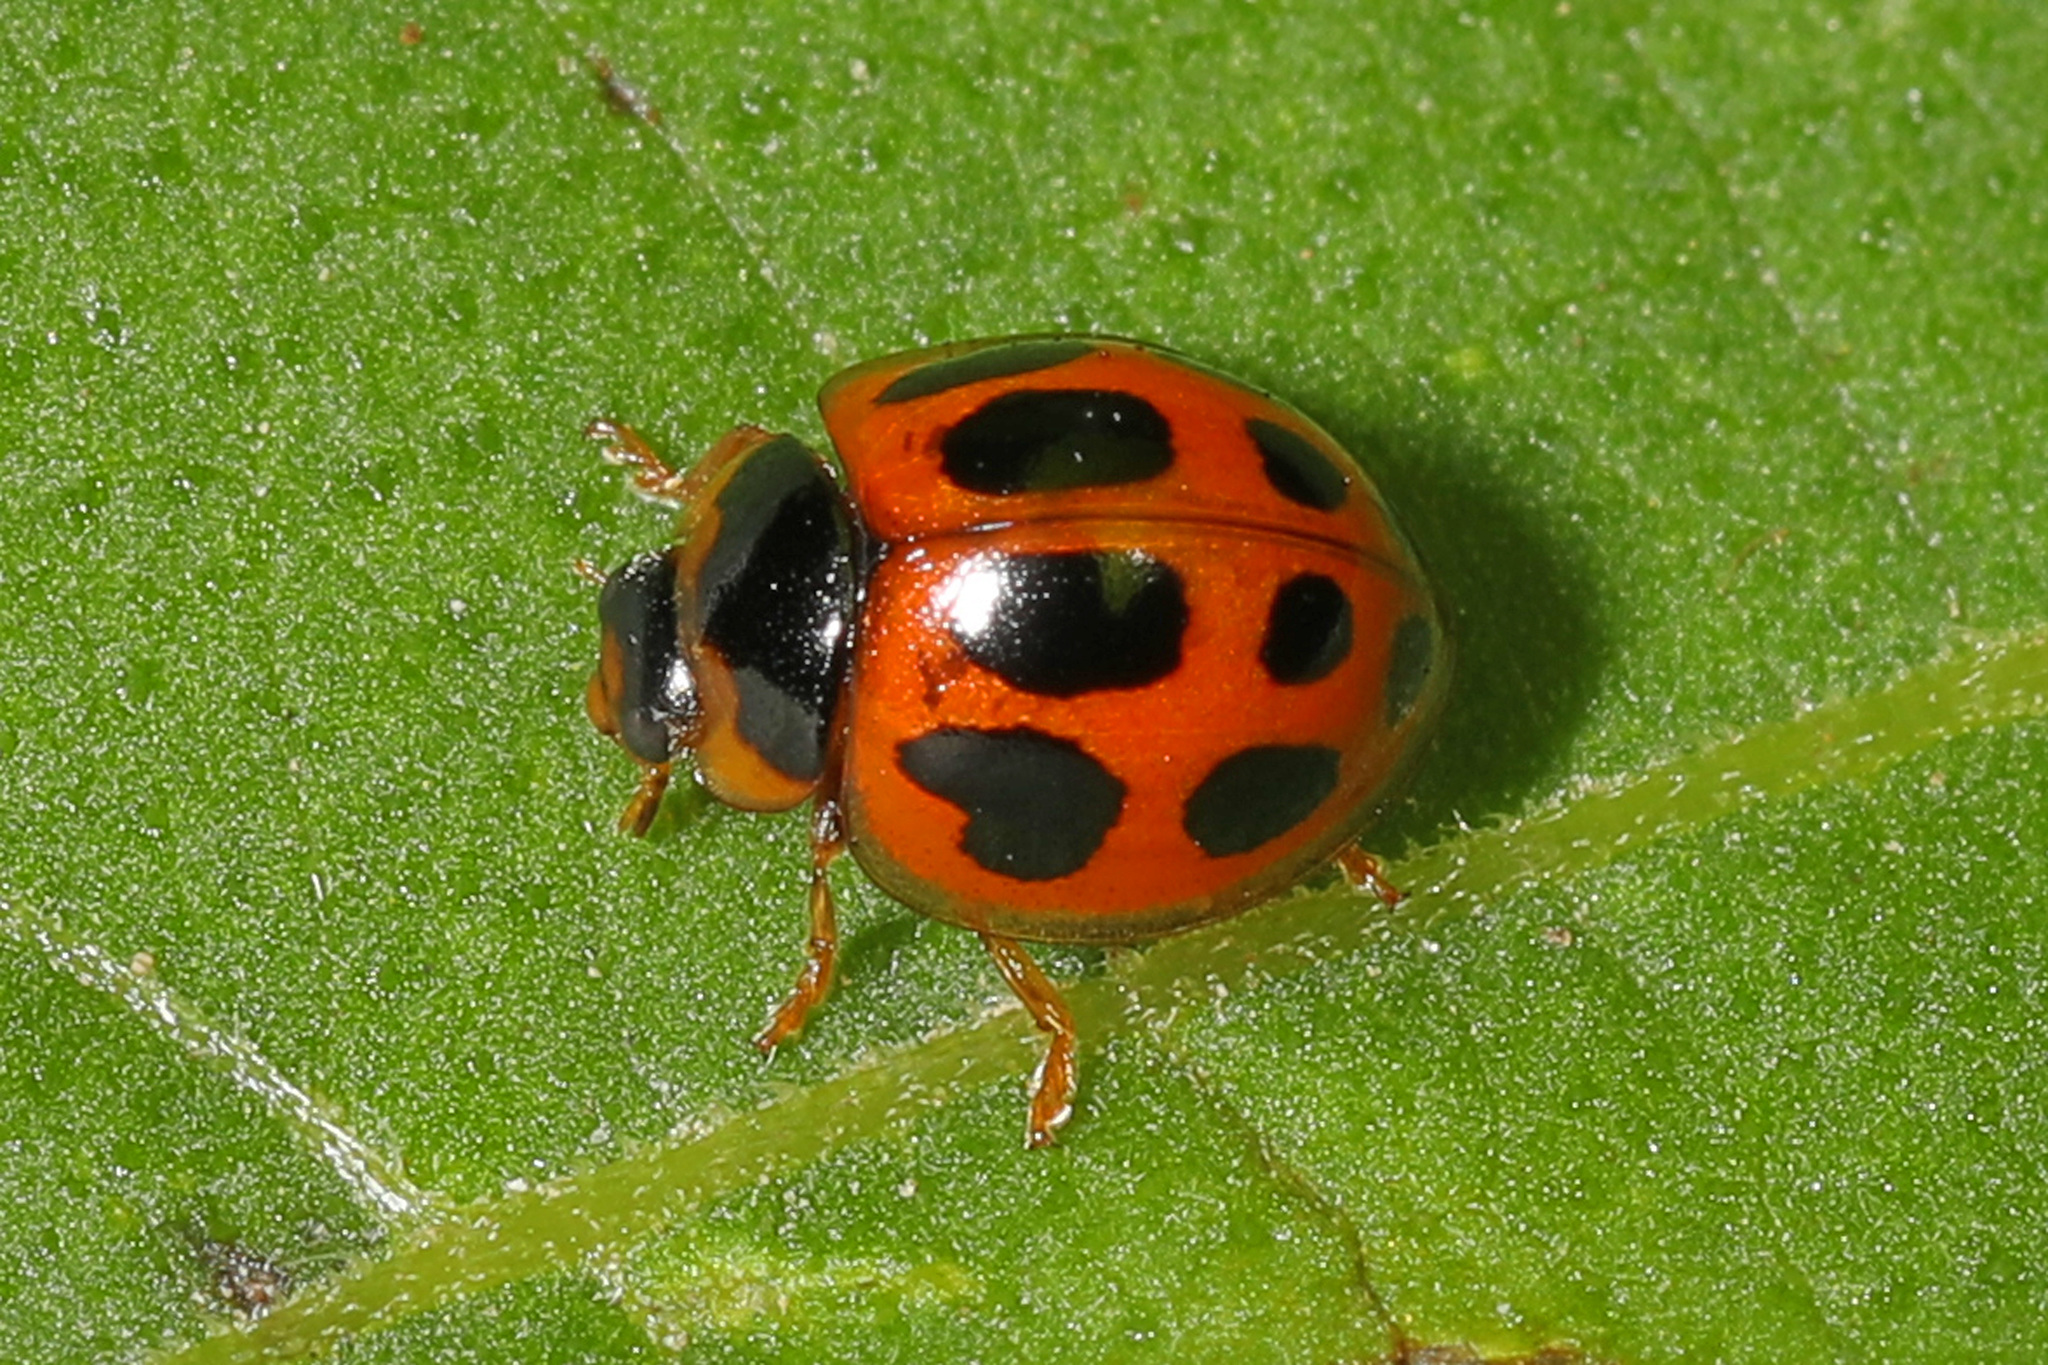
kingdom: Animalia
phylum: Arthropoda
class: Insecta
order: Coleoptera
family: Coccinellidae
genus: Zagreus
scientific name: Zagreus
